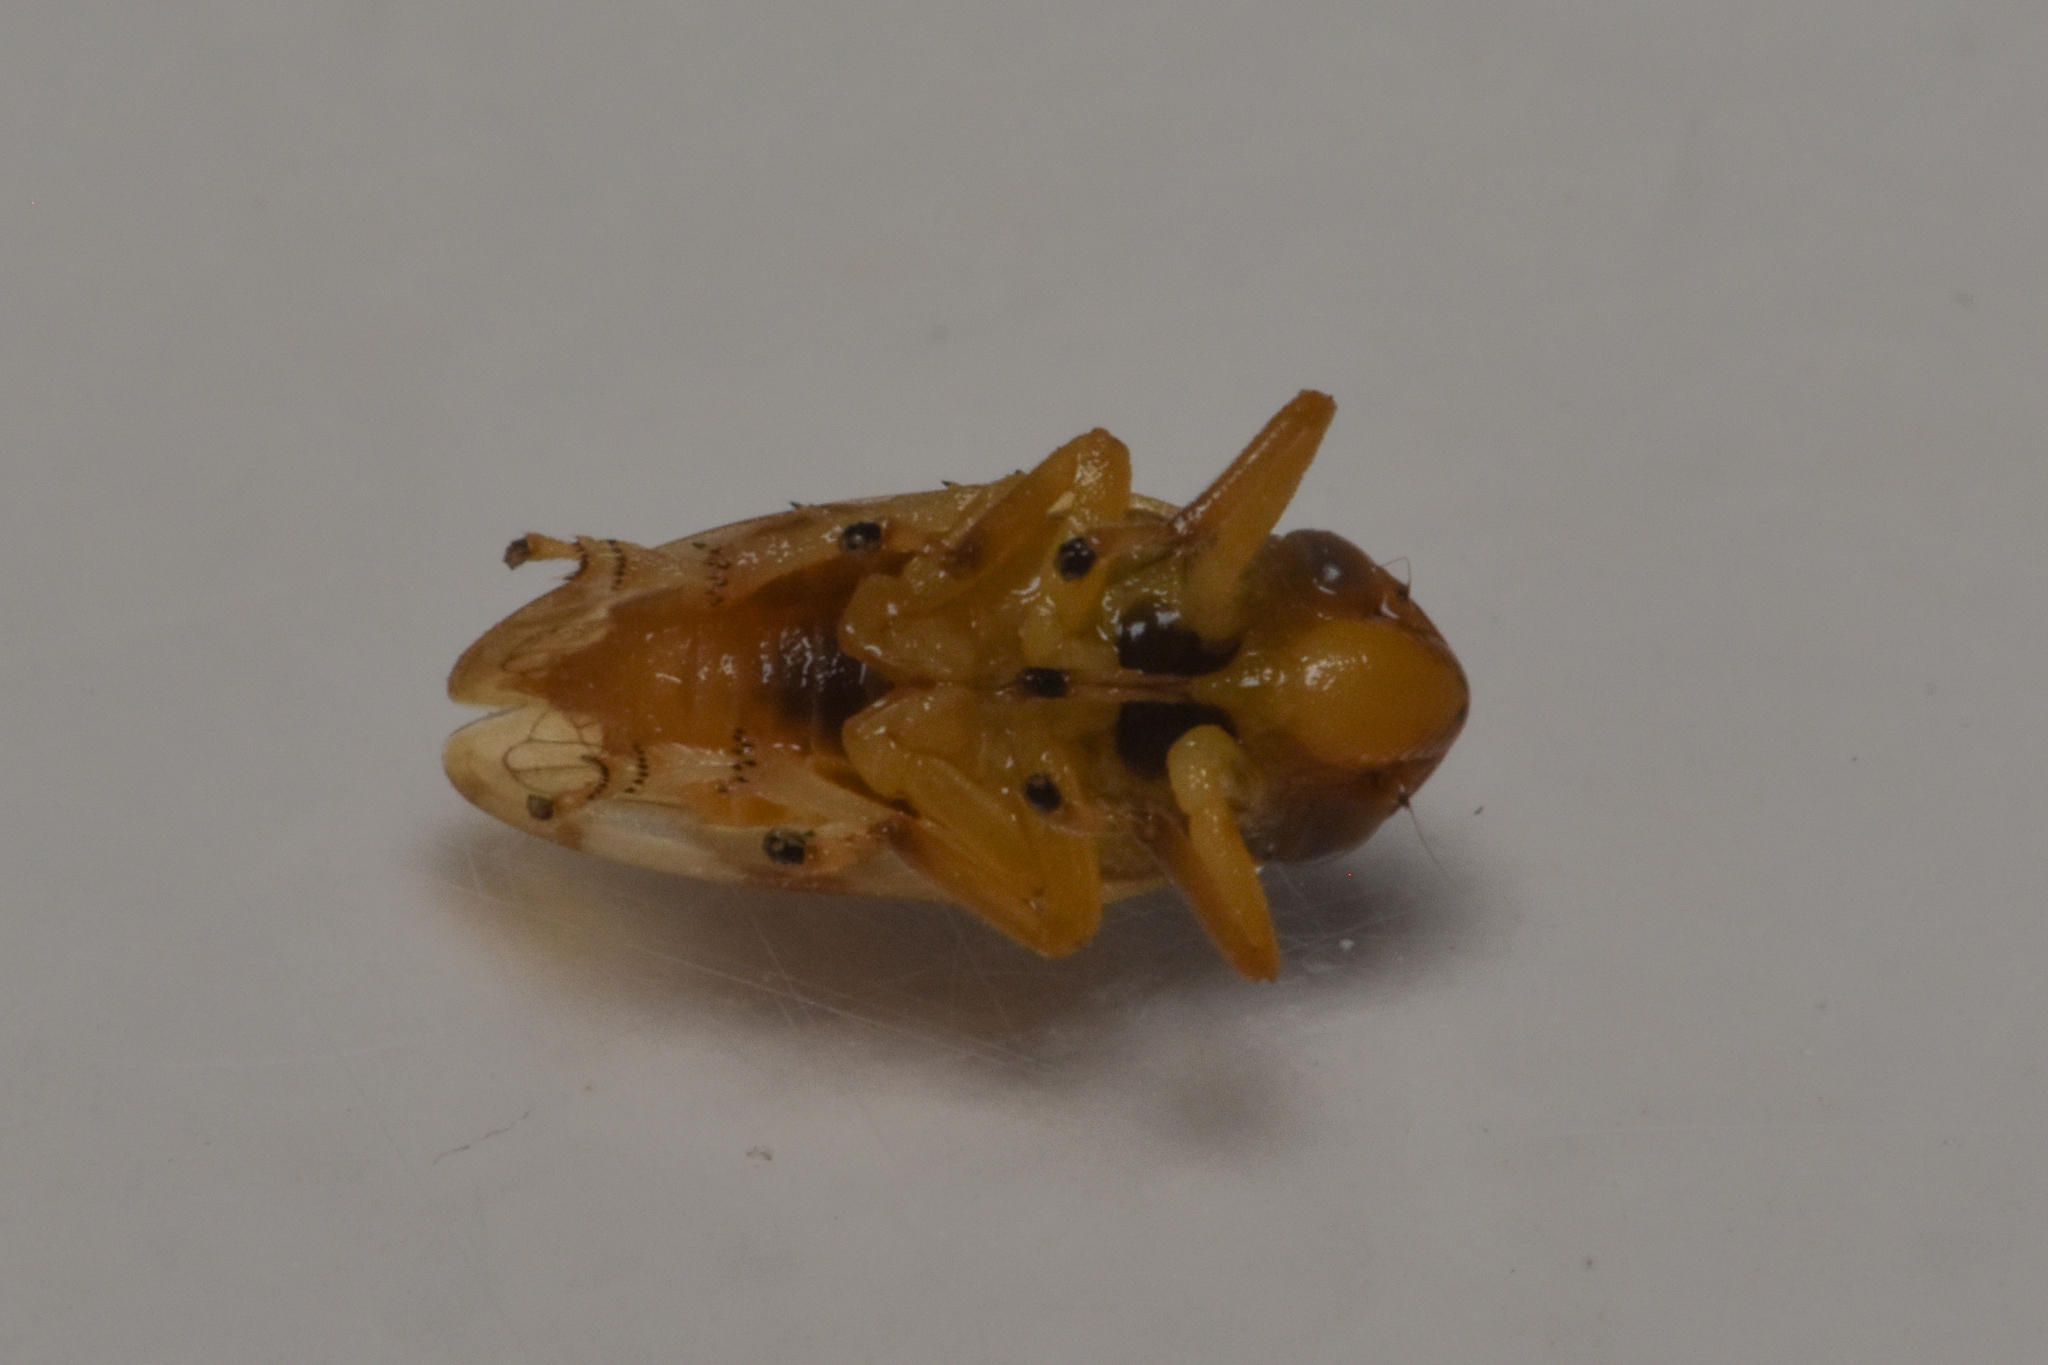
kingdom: Animalia
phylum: Arthropoda
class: Insecta
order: Hemiptera
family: Aphrophoridae
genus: Philaenus
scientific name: Philaenus spumarius
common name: Meadow spittlebug
